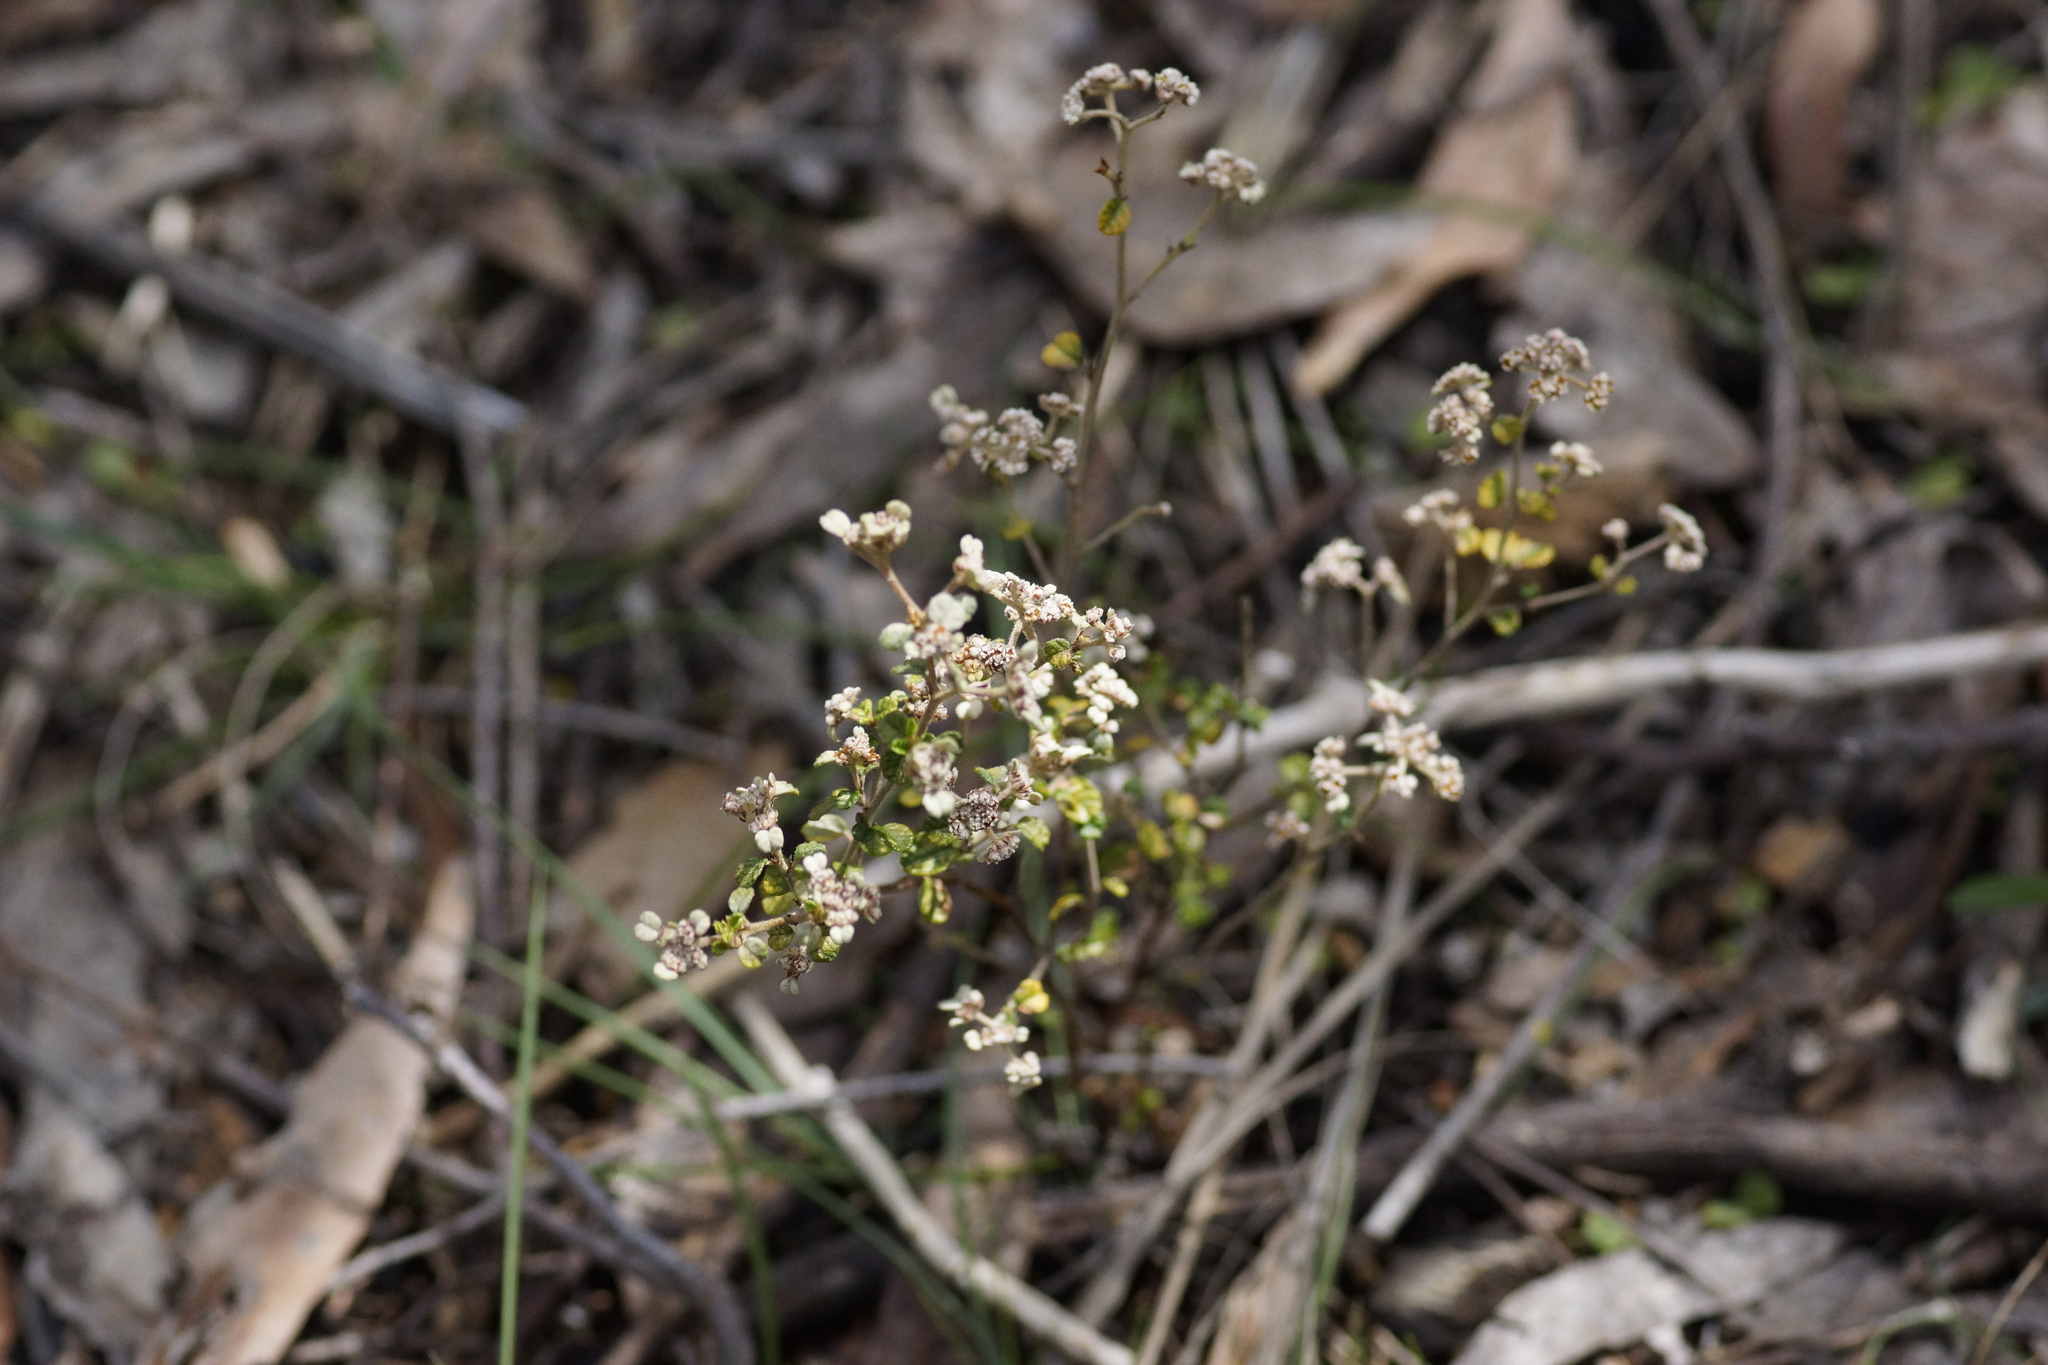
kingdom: Plantae
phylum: Tracheophyta
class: Magnoliopsida
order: Rosales
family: Rhamnaceae
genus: Spyridium
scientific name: Spyridium parvifolium
